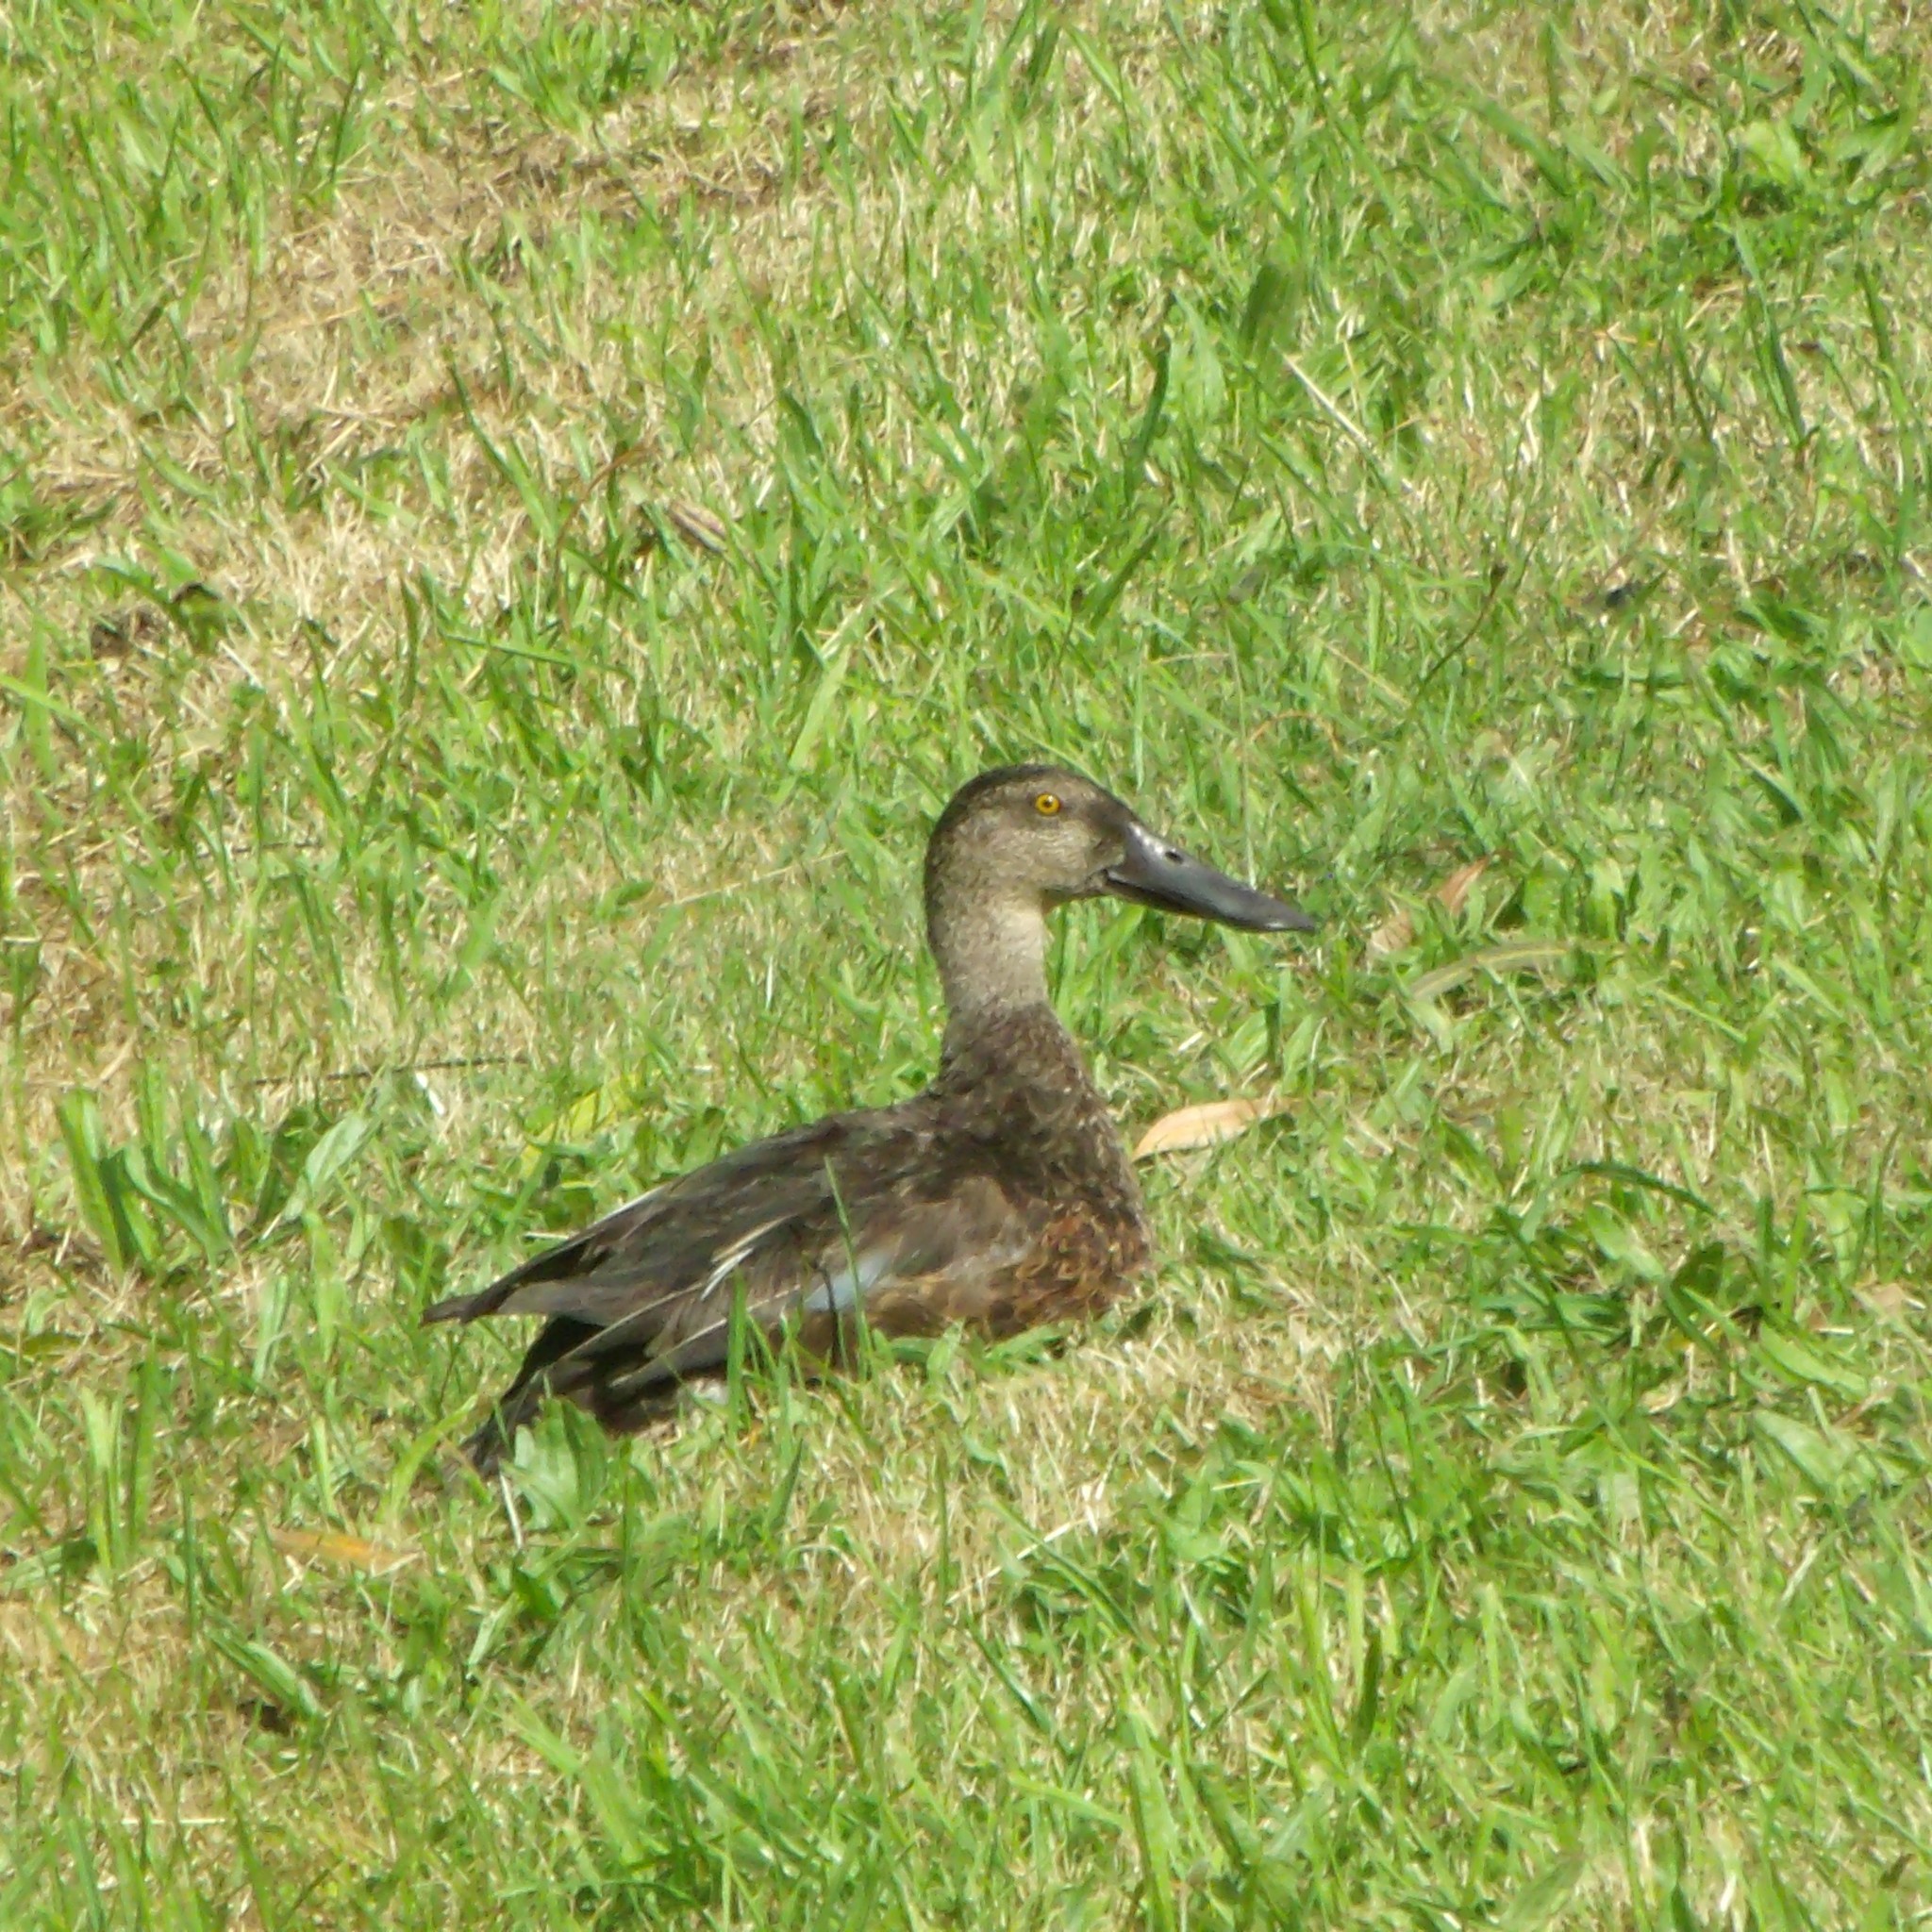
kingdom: Animalia
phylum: Chordata
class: Aves
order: Anseriformes
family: Anatidae
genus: Spatula
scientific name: Spatula rhynchotis
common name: Australian shoveler
